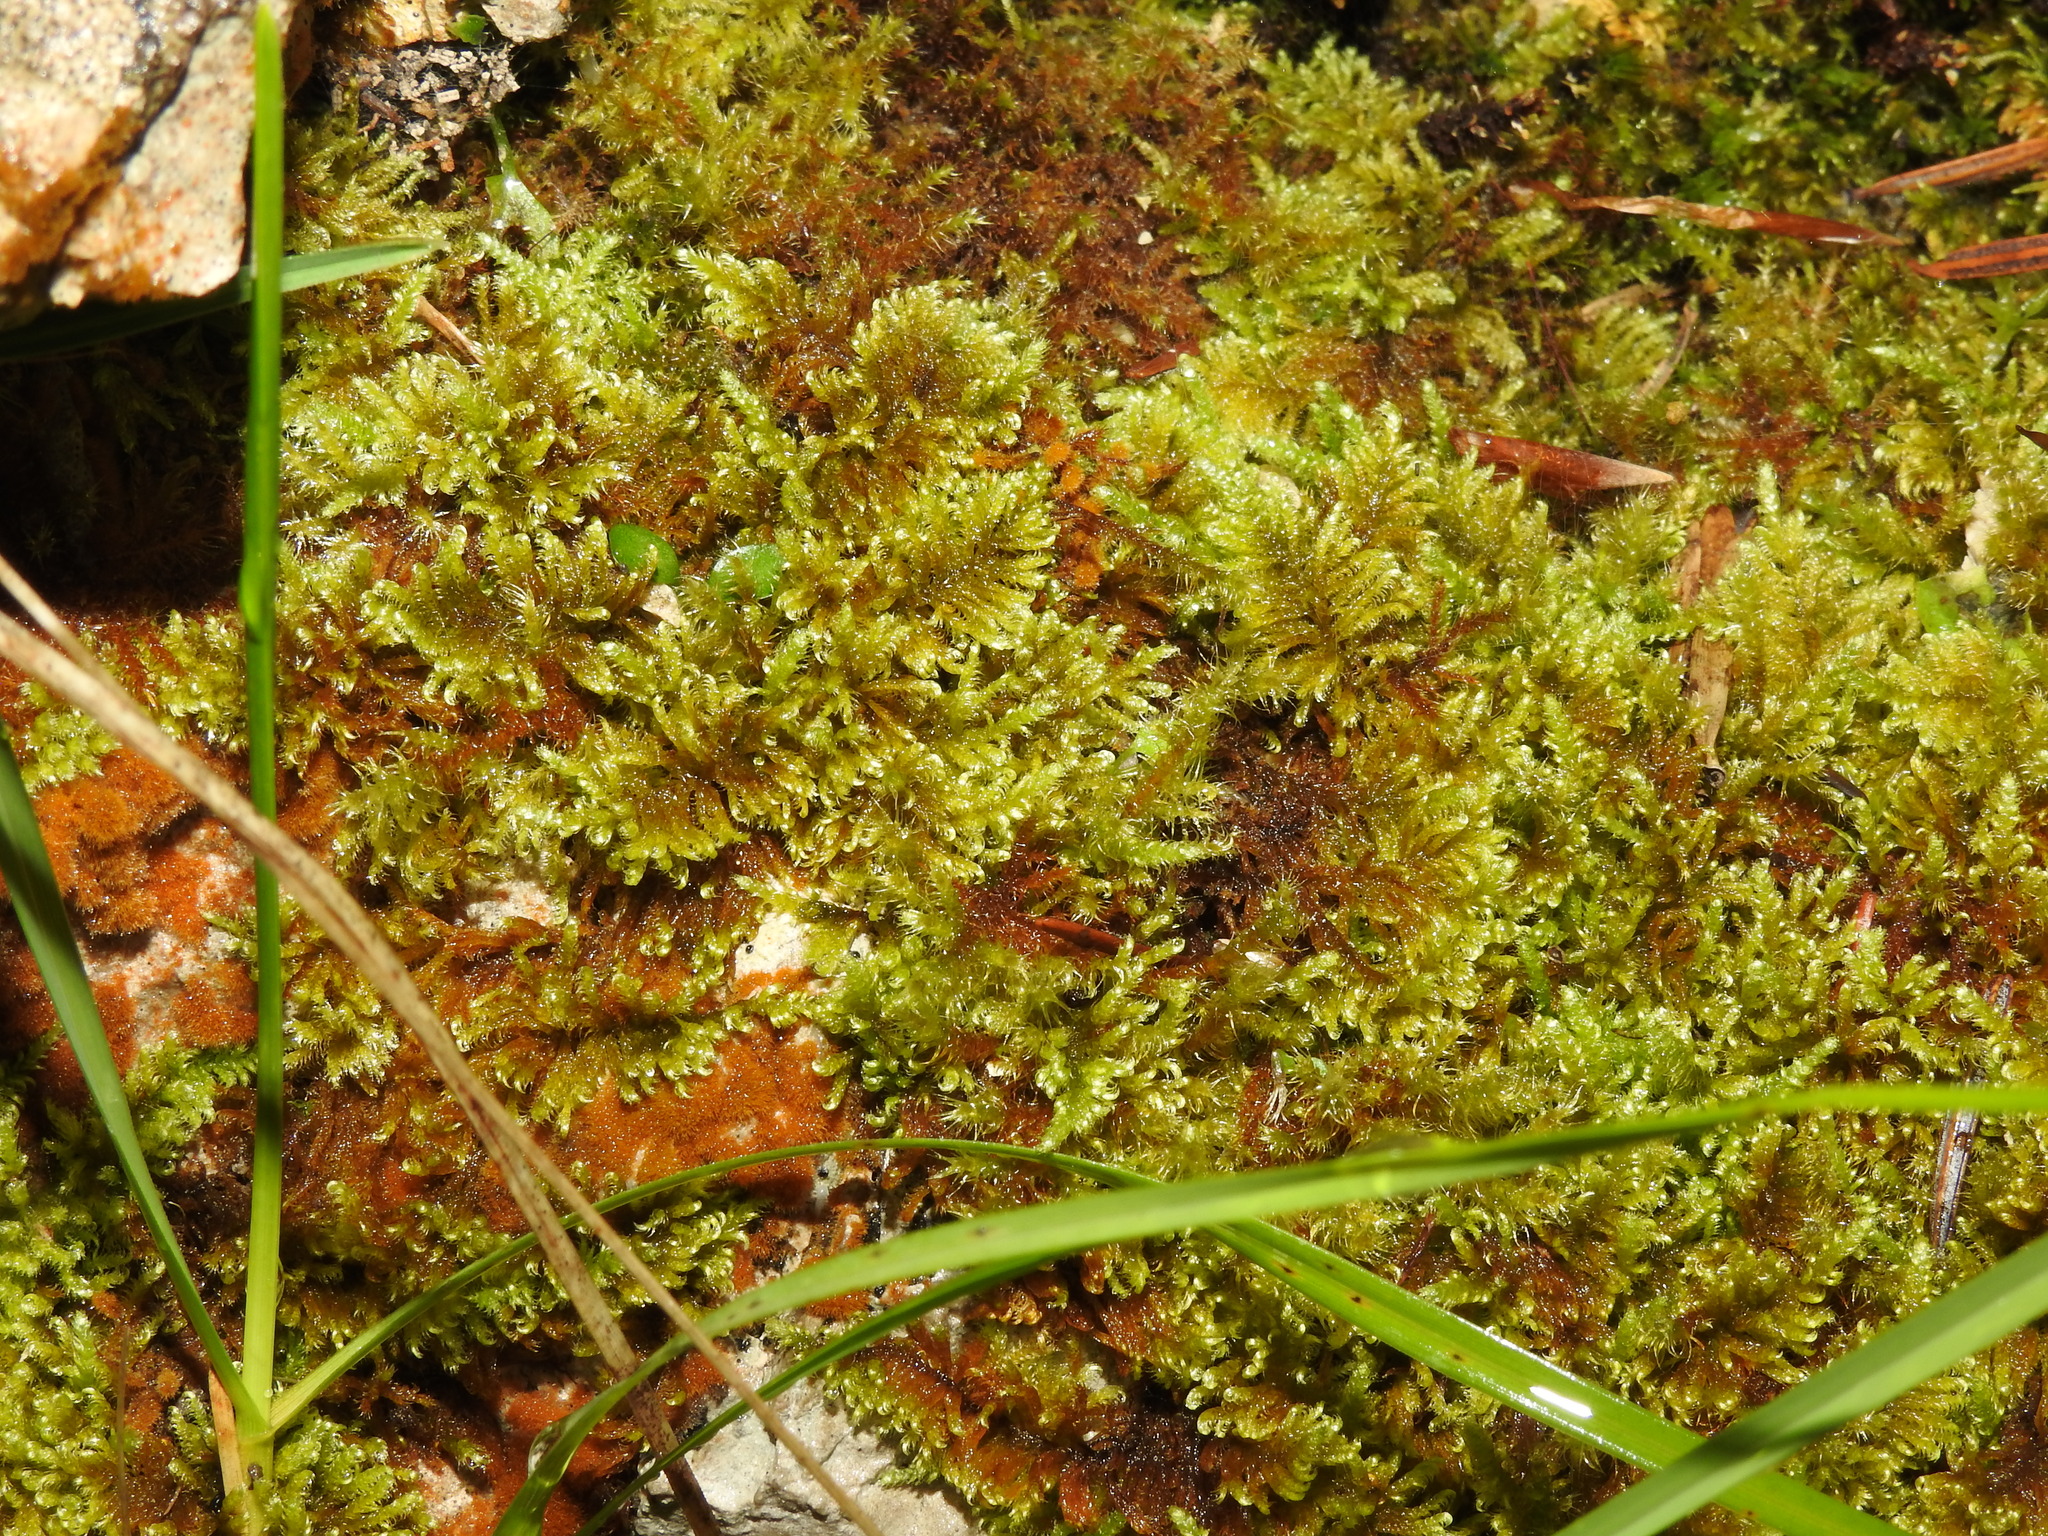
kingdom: Plantae
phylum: Bryophyta
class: Bryopsida
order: Hypnales
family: Myuriaceae
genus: Ctenidium
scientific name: Ctenidium molluscum
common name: Chalk comb-moss
